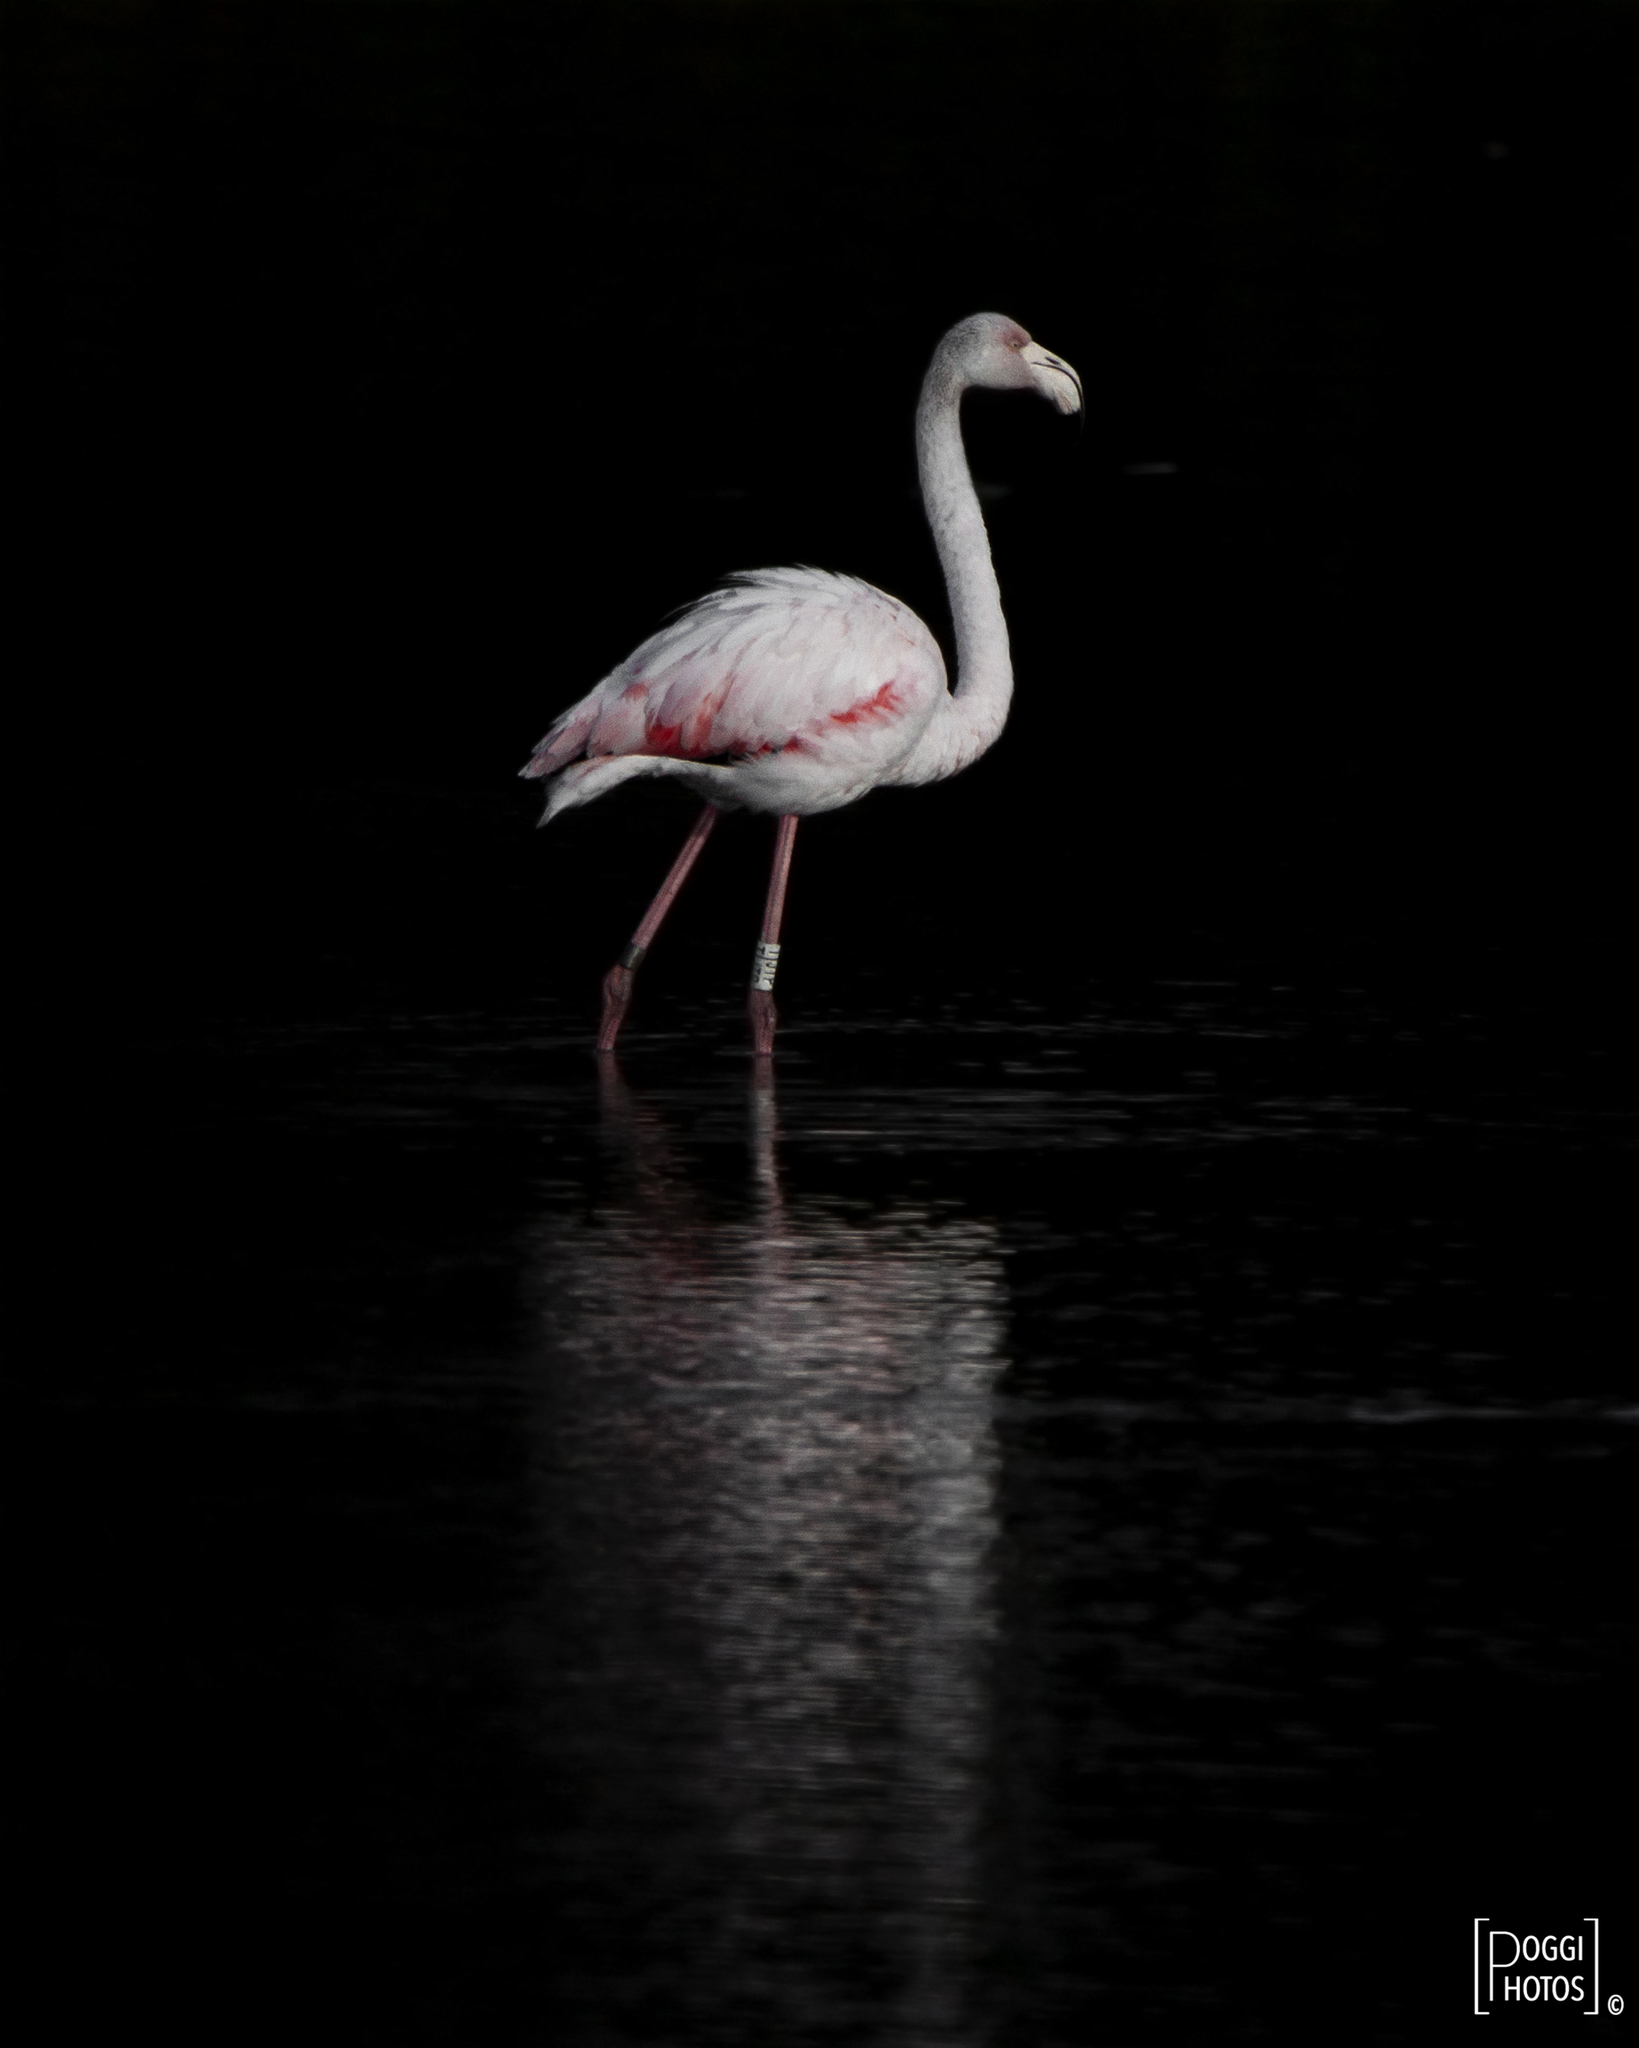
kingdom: Animalia
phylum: Chordata
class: Aves
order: Phoenicopteriformes
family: Phoenicopteridae
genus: Phoenicopterus
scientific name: Phoenicopterus roseus
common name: Greater flamingo
